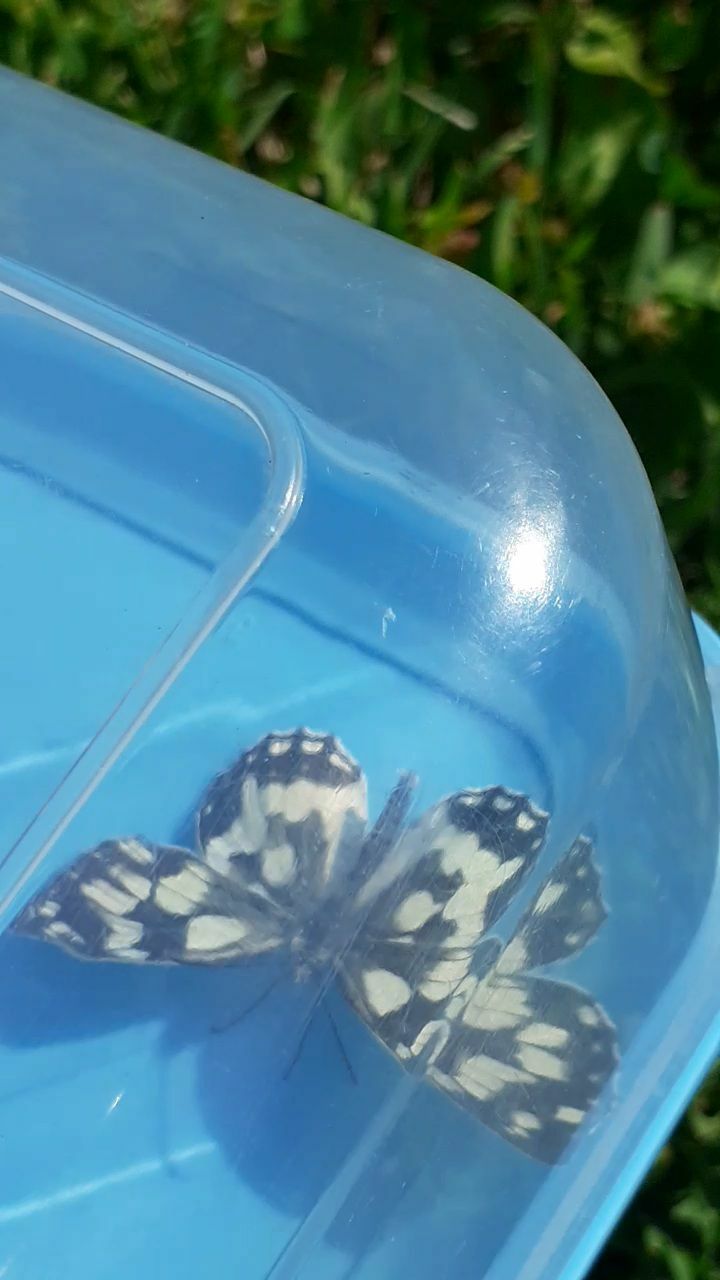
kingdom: Animalia
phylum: Arthropoda
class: Insecta
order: Lepidoptera
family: Nymphalidae
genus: Melanargia
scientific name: Melanargia galathea
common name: Marbled white
